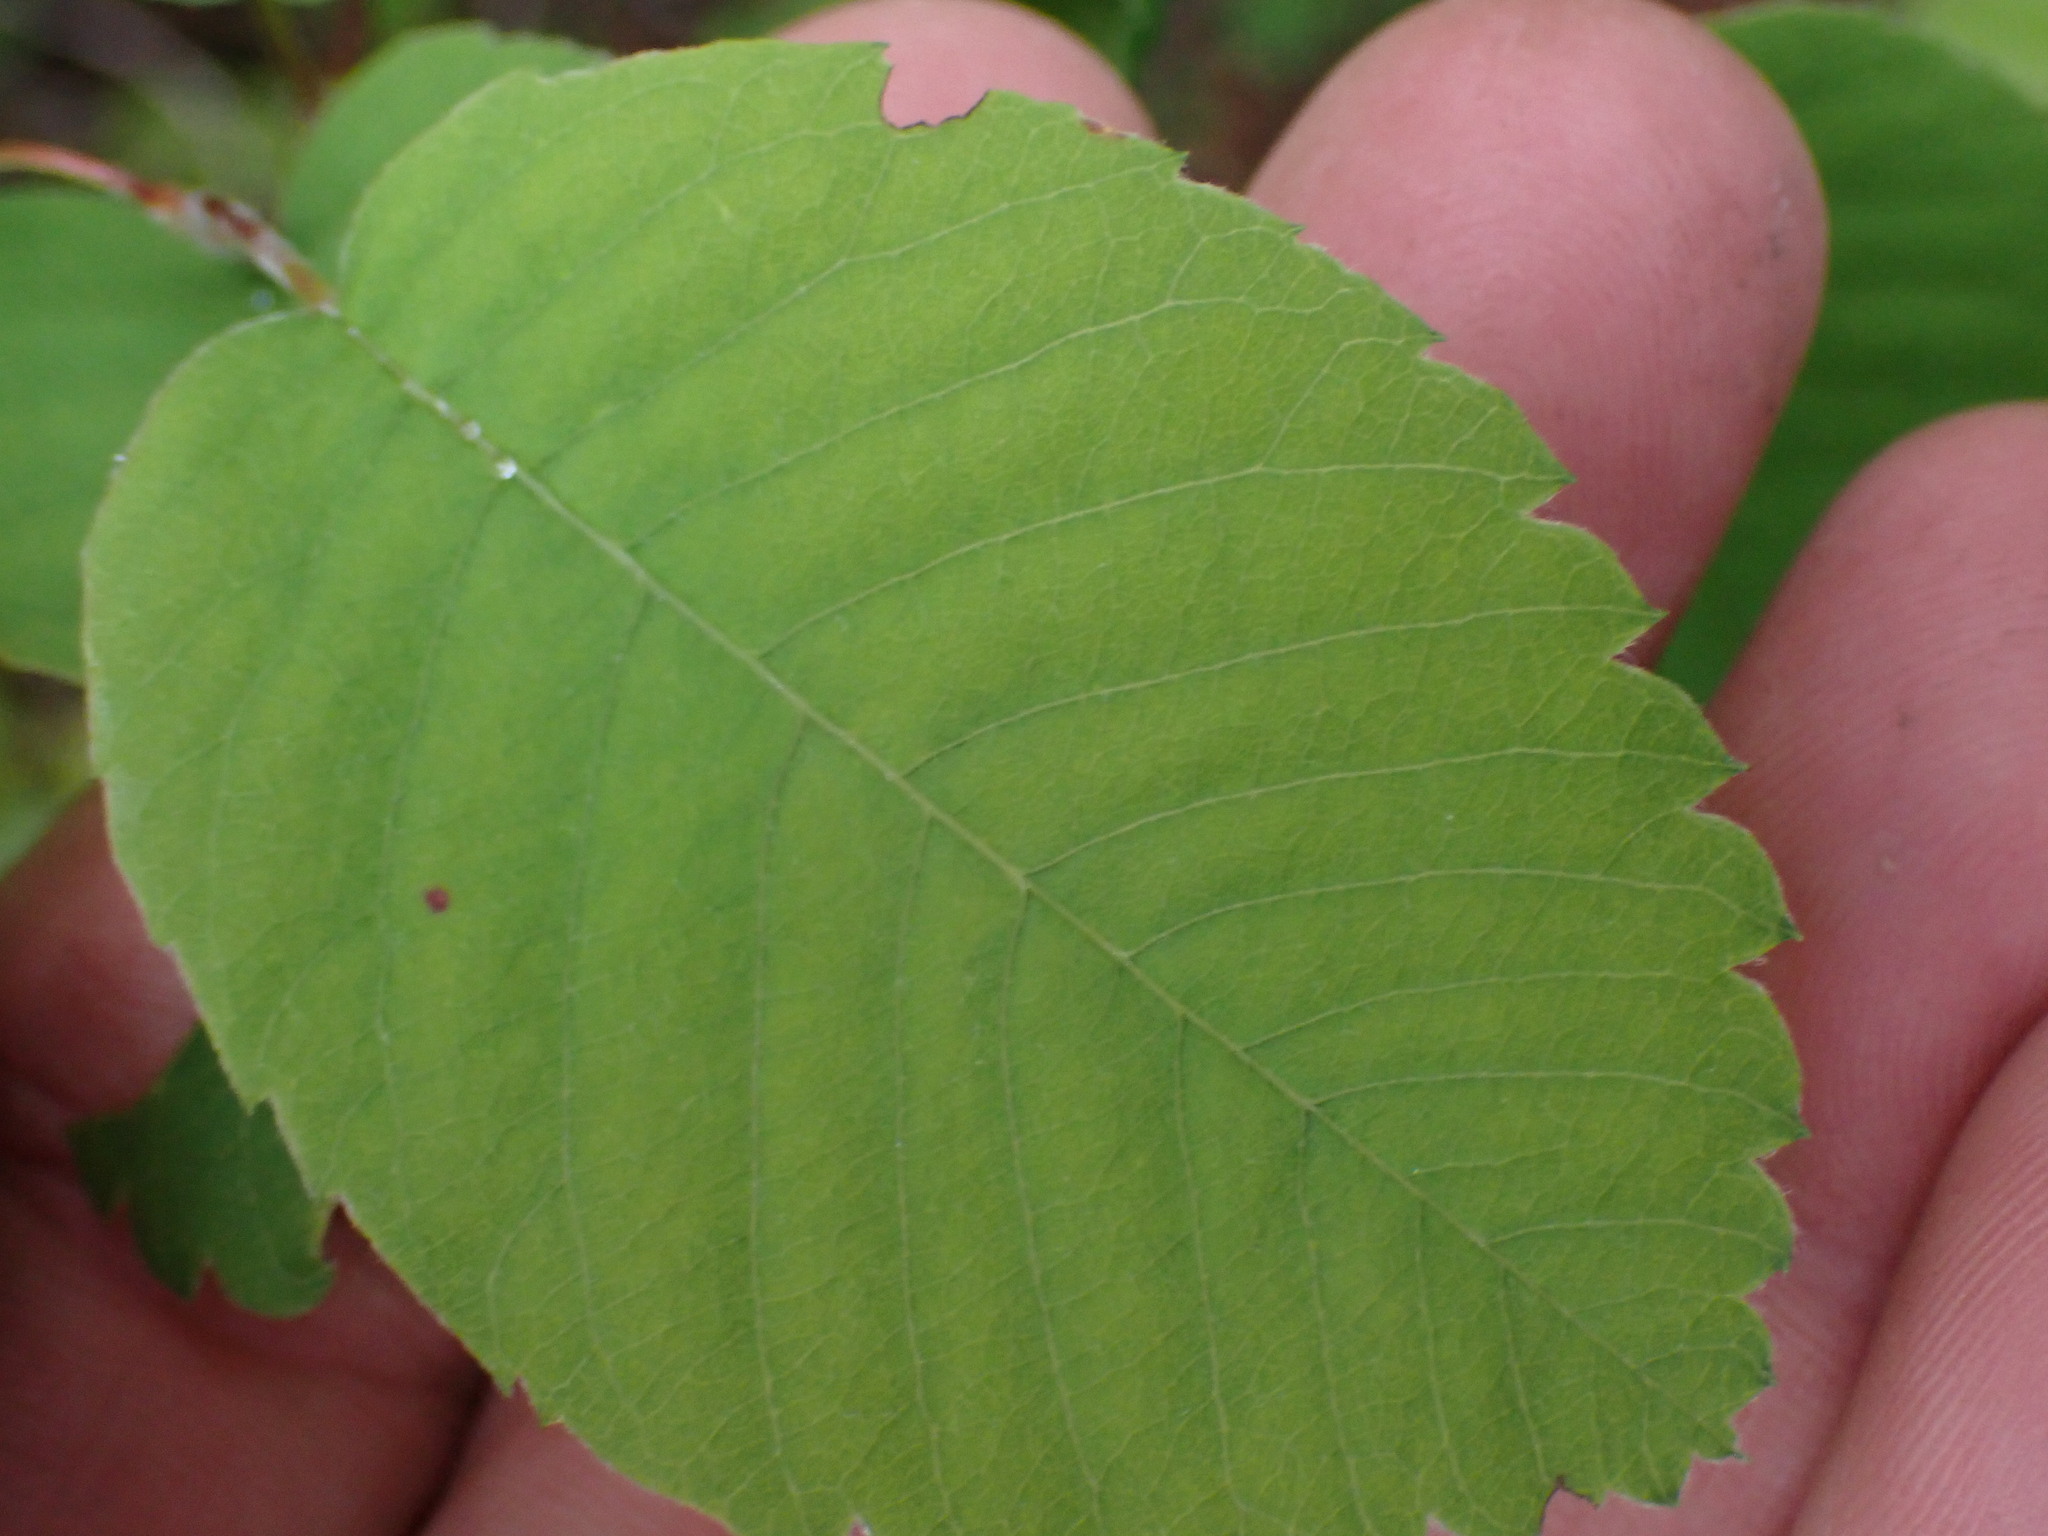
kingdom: Plantae
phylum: Tracheophyta
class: Magnoliopsida
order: Rosales
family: Rosaceae
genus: Amelanchier
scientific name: Amelanchier alnifolia
